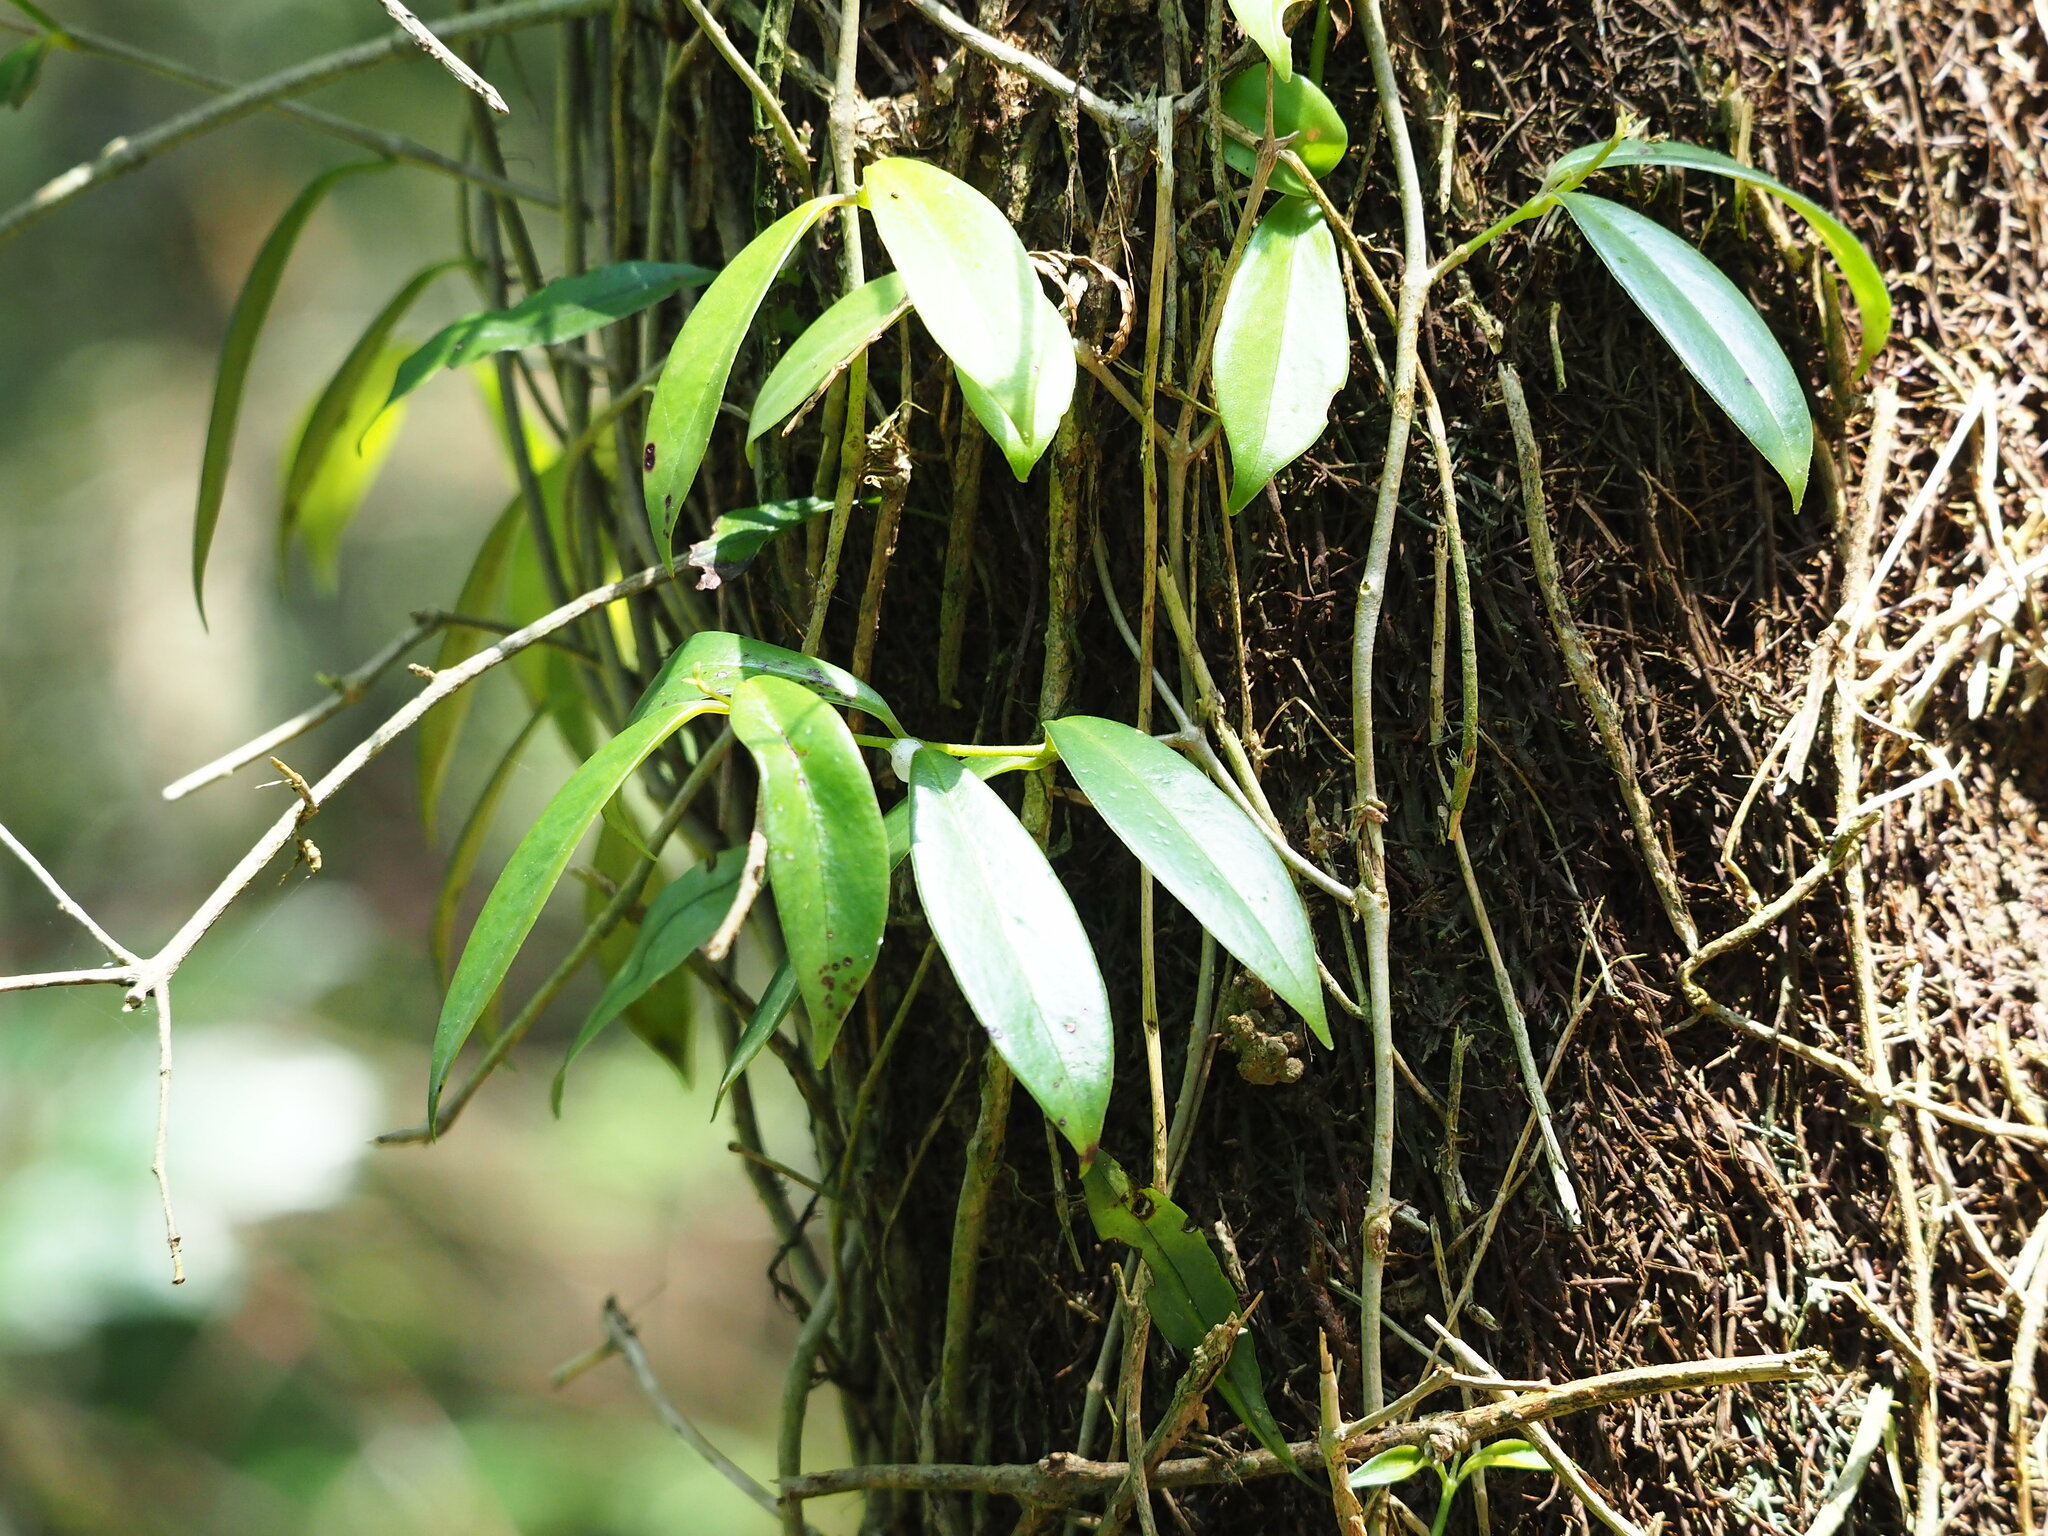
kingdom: Plantae
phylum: Tracheophyta
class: Magnoliopsida
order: Lamiales
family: Gesneriaceae
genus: Aeschynanthus
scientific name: Aeschynanthus acuminatus
